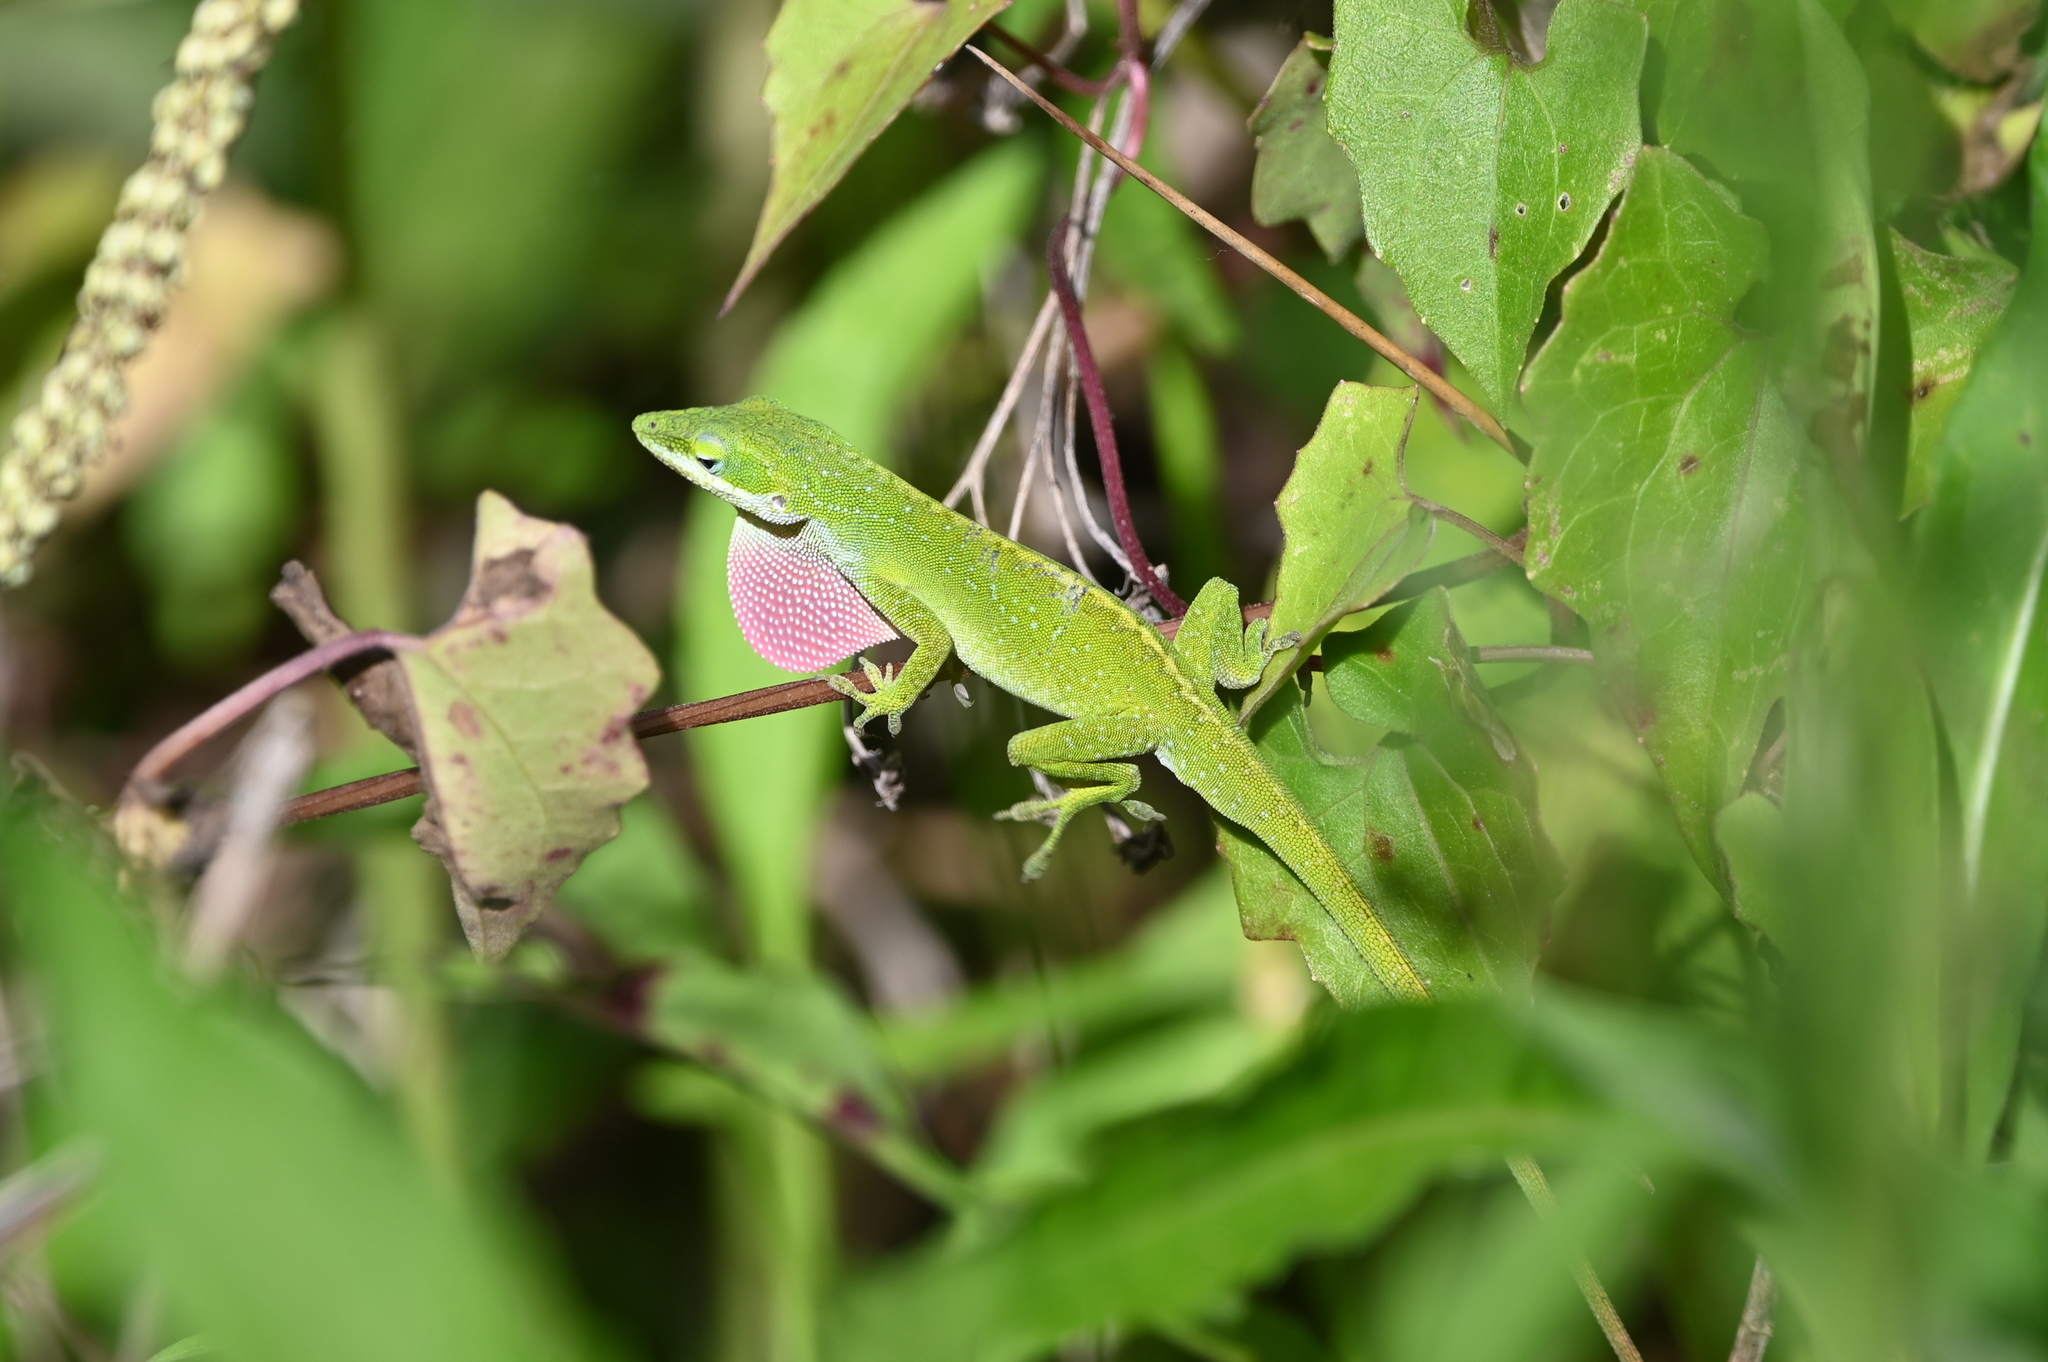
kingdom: Animalia
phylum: Chordata
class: Squamata
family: Dactyloidae
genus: Anolis
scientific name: Anolis carolinensis
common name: Green anole
